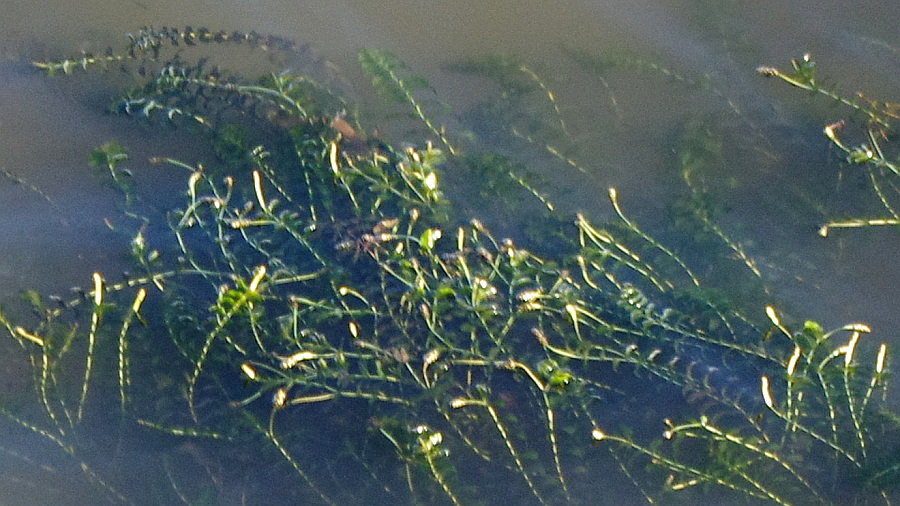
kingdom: Plantae
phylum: Tracheophyta
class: Liliopsida
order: Alismatales
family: Potamogetonaceae
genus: Potamogeton
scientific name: Potamogeton perfoliatus
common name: Perfoliate pondweed
